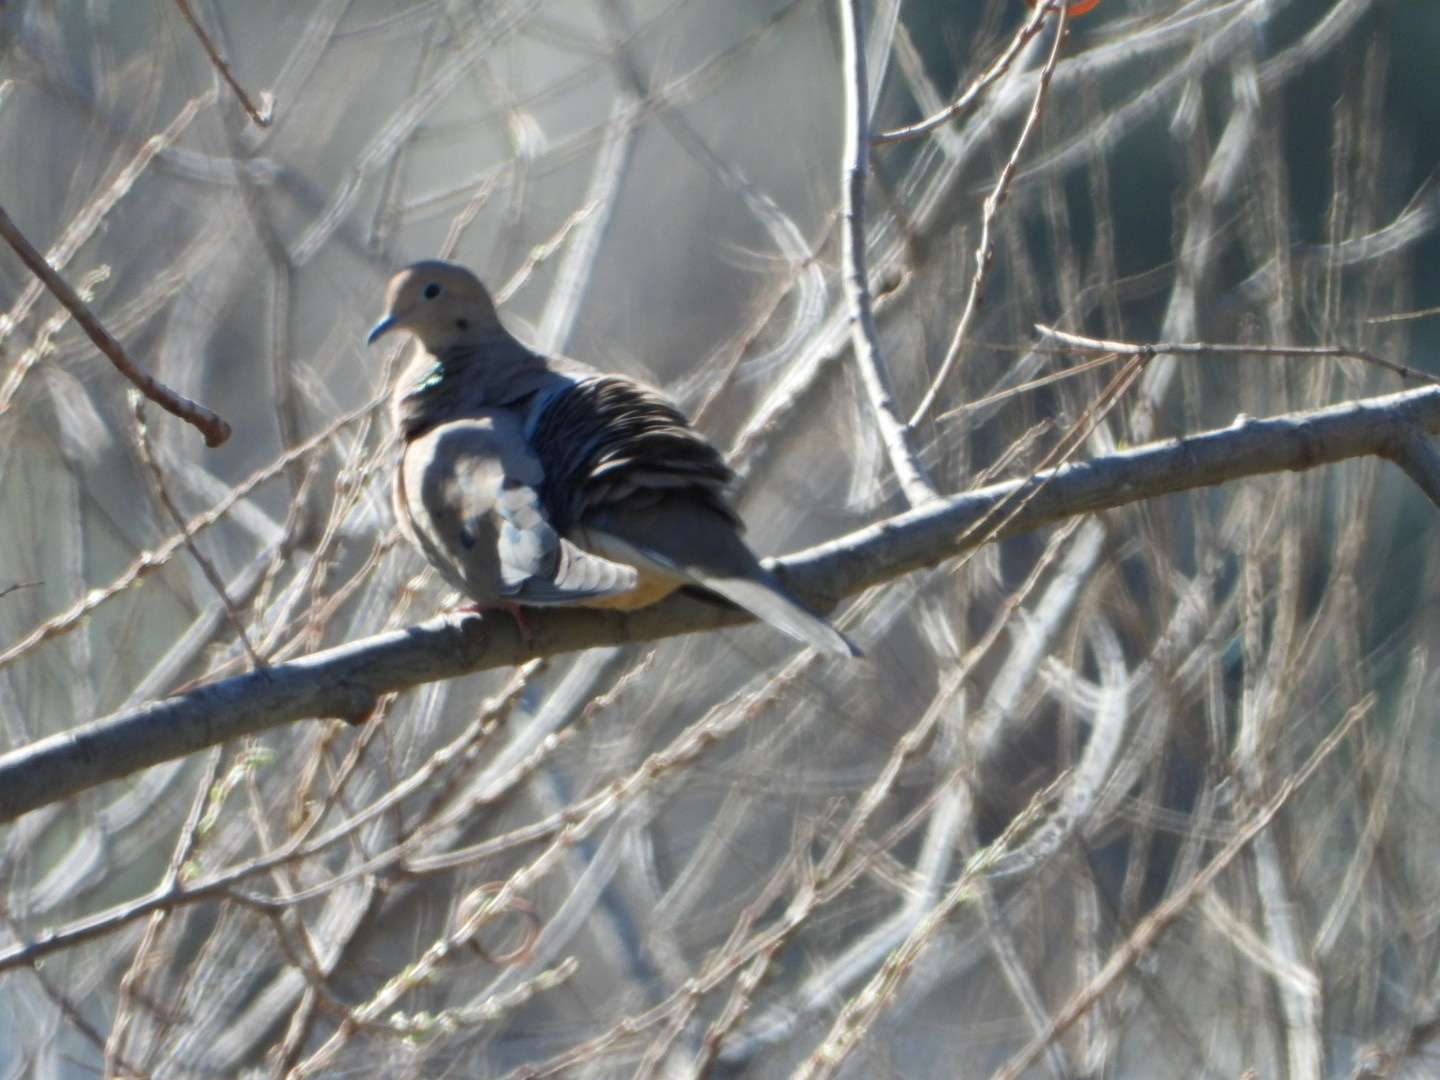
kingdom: Animalia
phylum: Chordata
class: Aves
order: Columbiformes
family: Columbidae
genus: Zenaida
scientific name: Zenaida macroura
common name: Mourning dove
